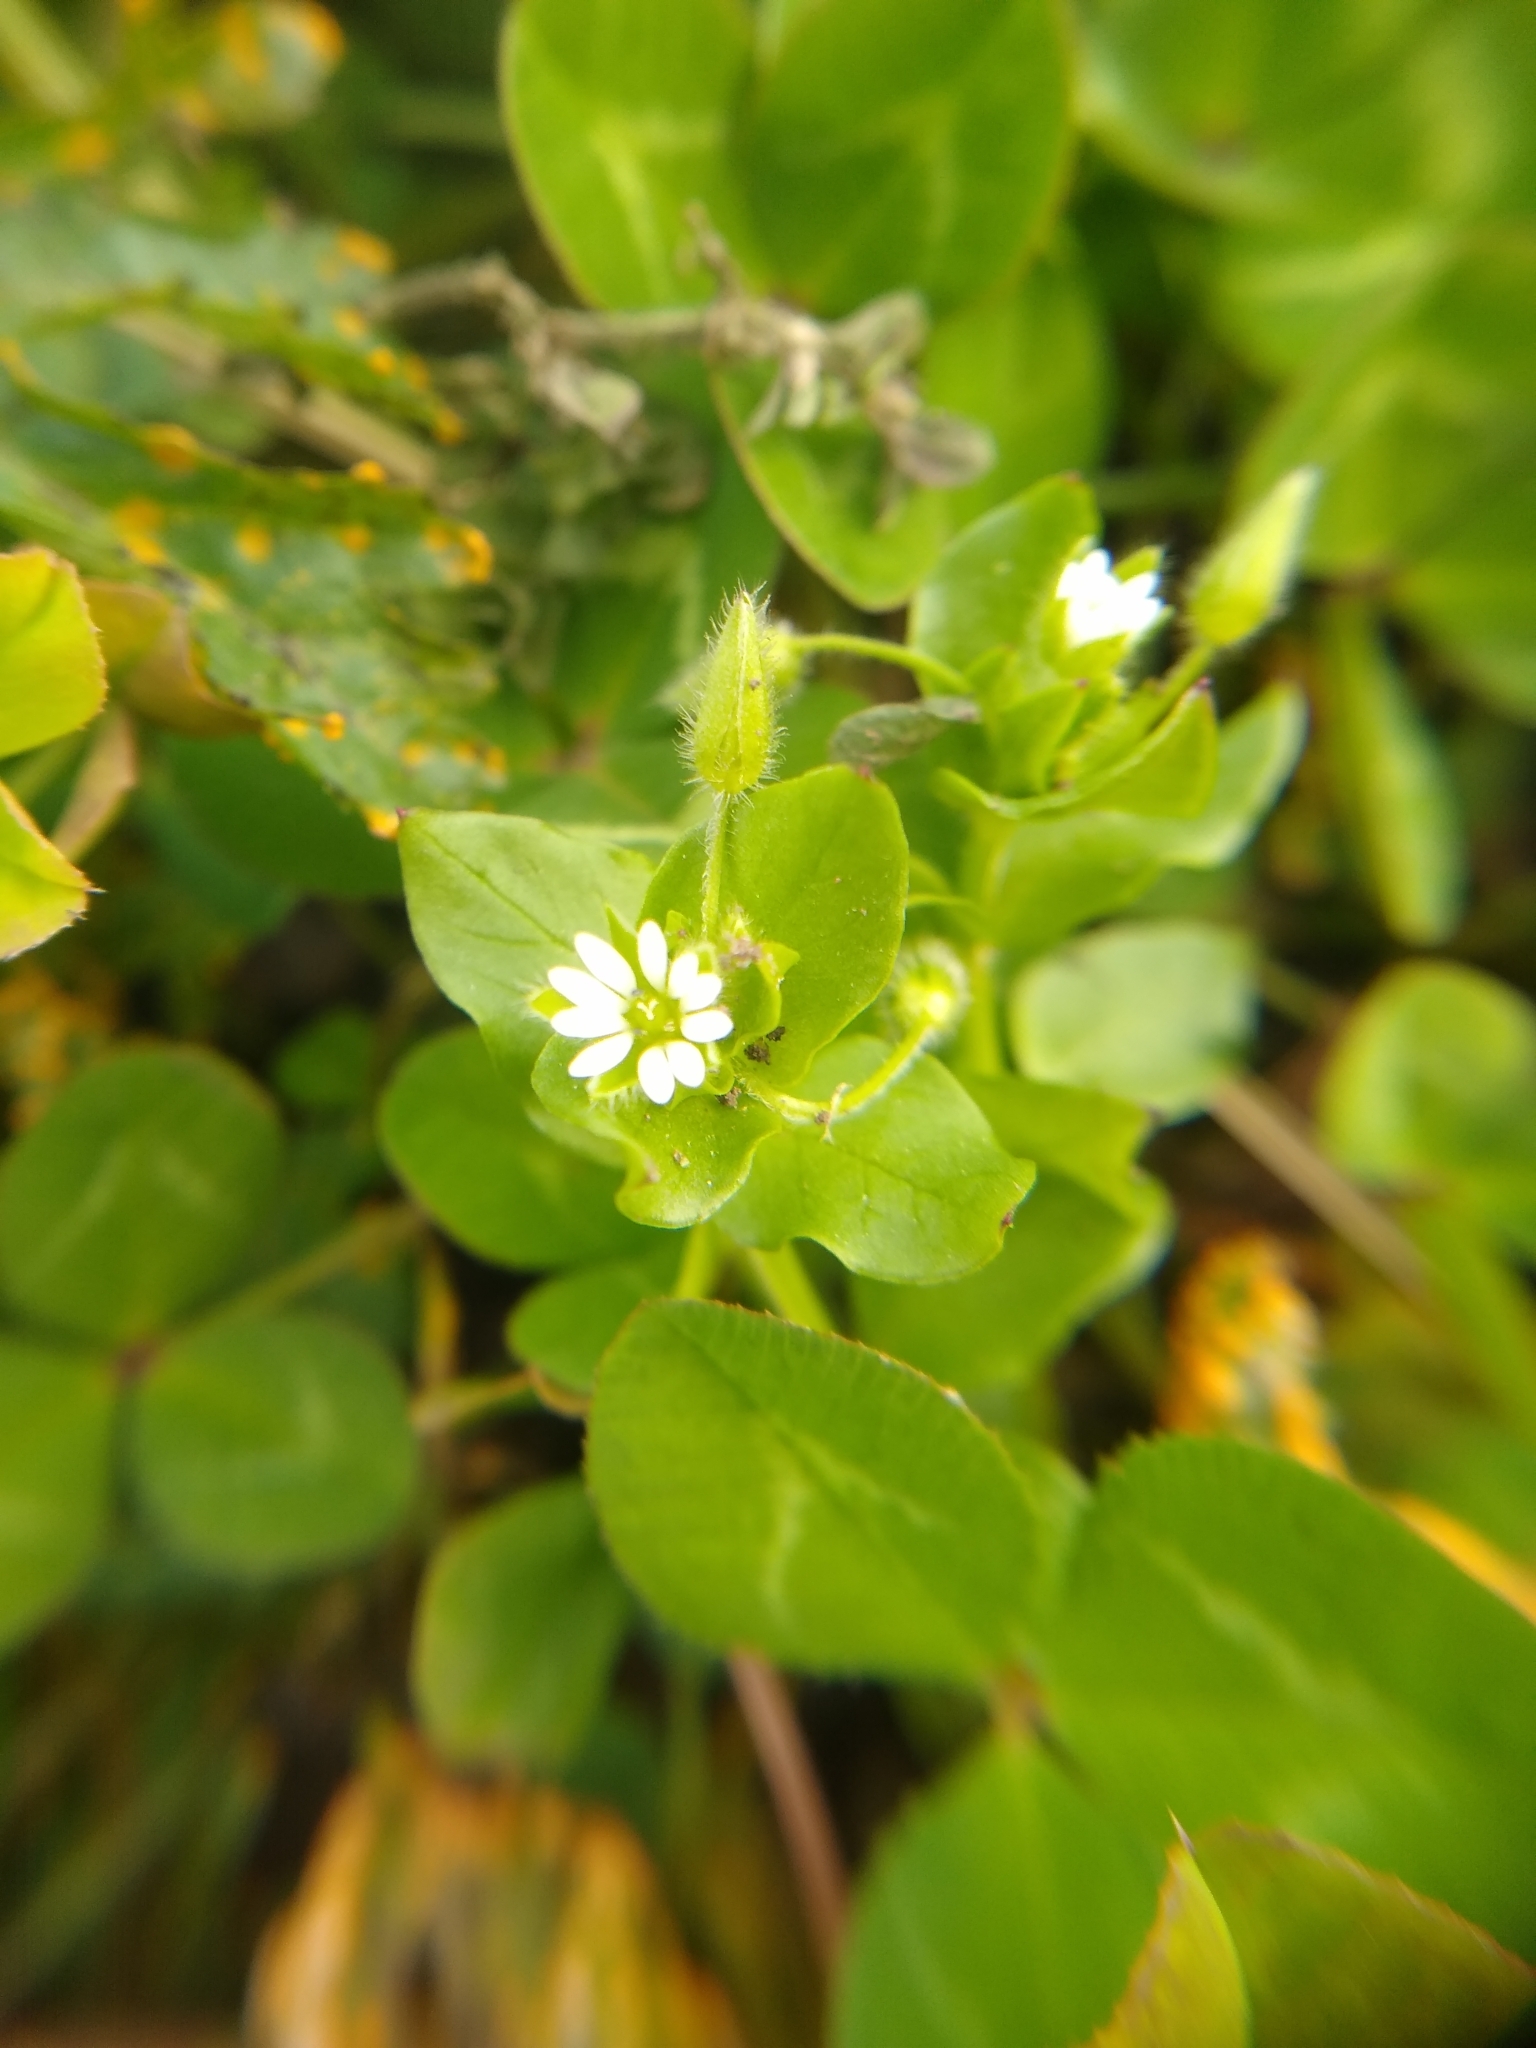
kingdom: Plantae
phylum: Tracheophyta
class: Magnoliopsida
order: Caryophyllales
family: Caryophyllaceae
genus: Stellaria
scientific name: Stellaria media
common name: Common chickweed
